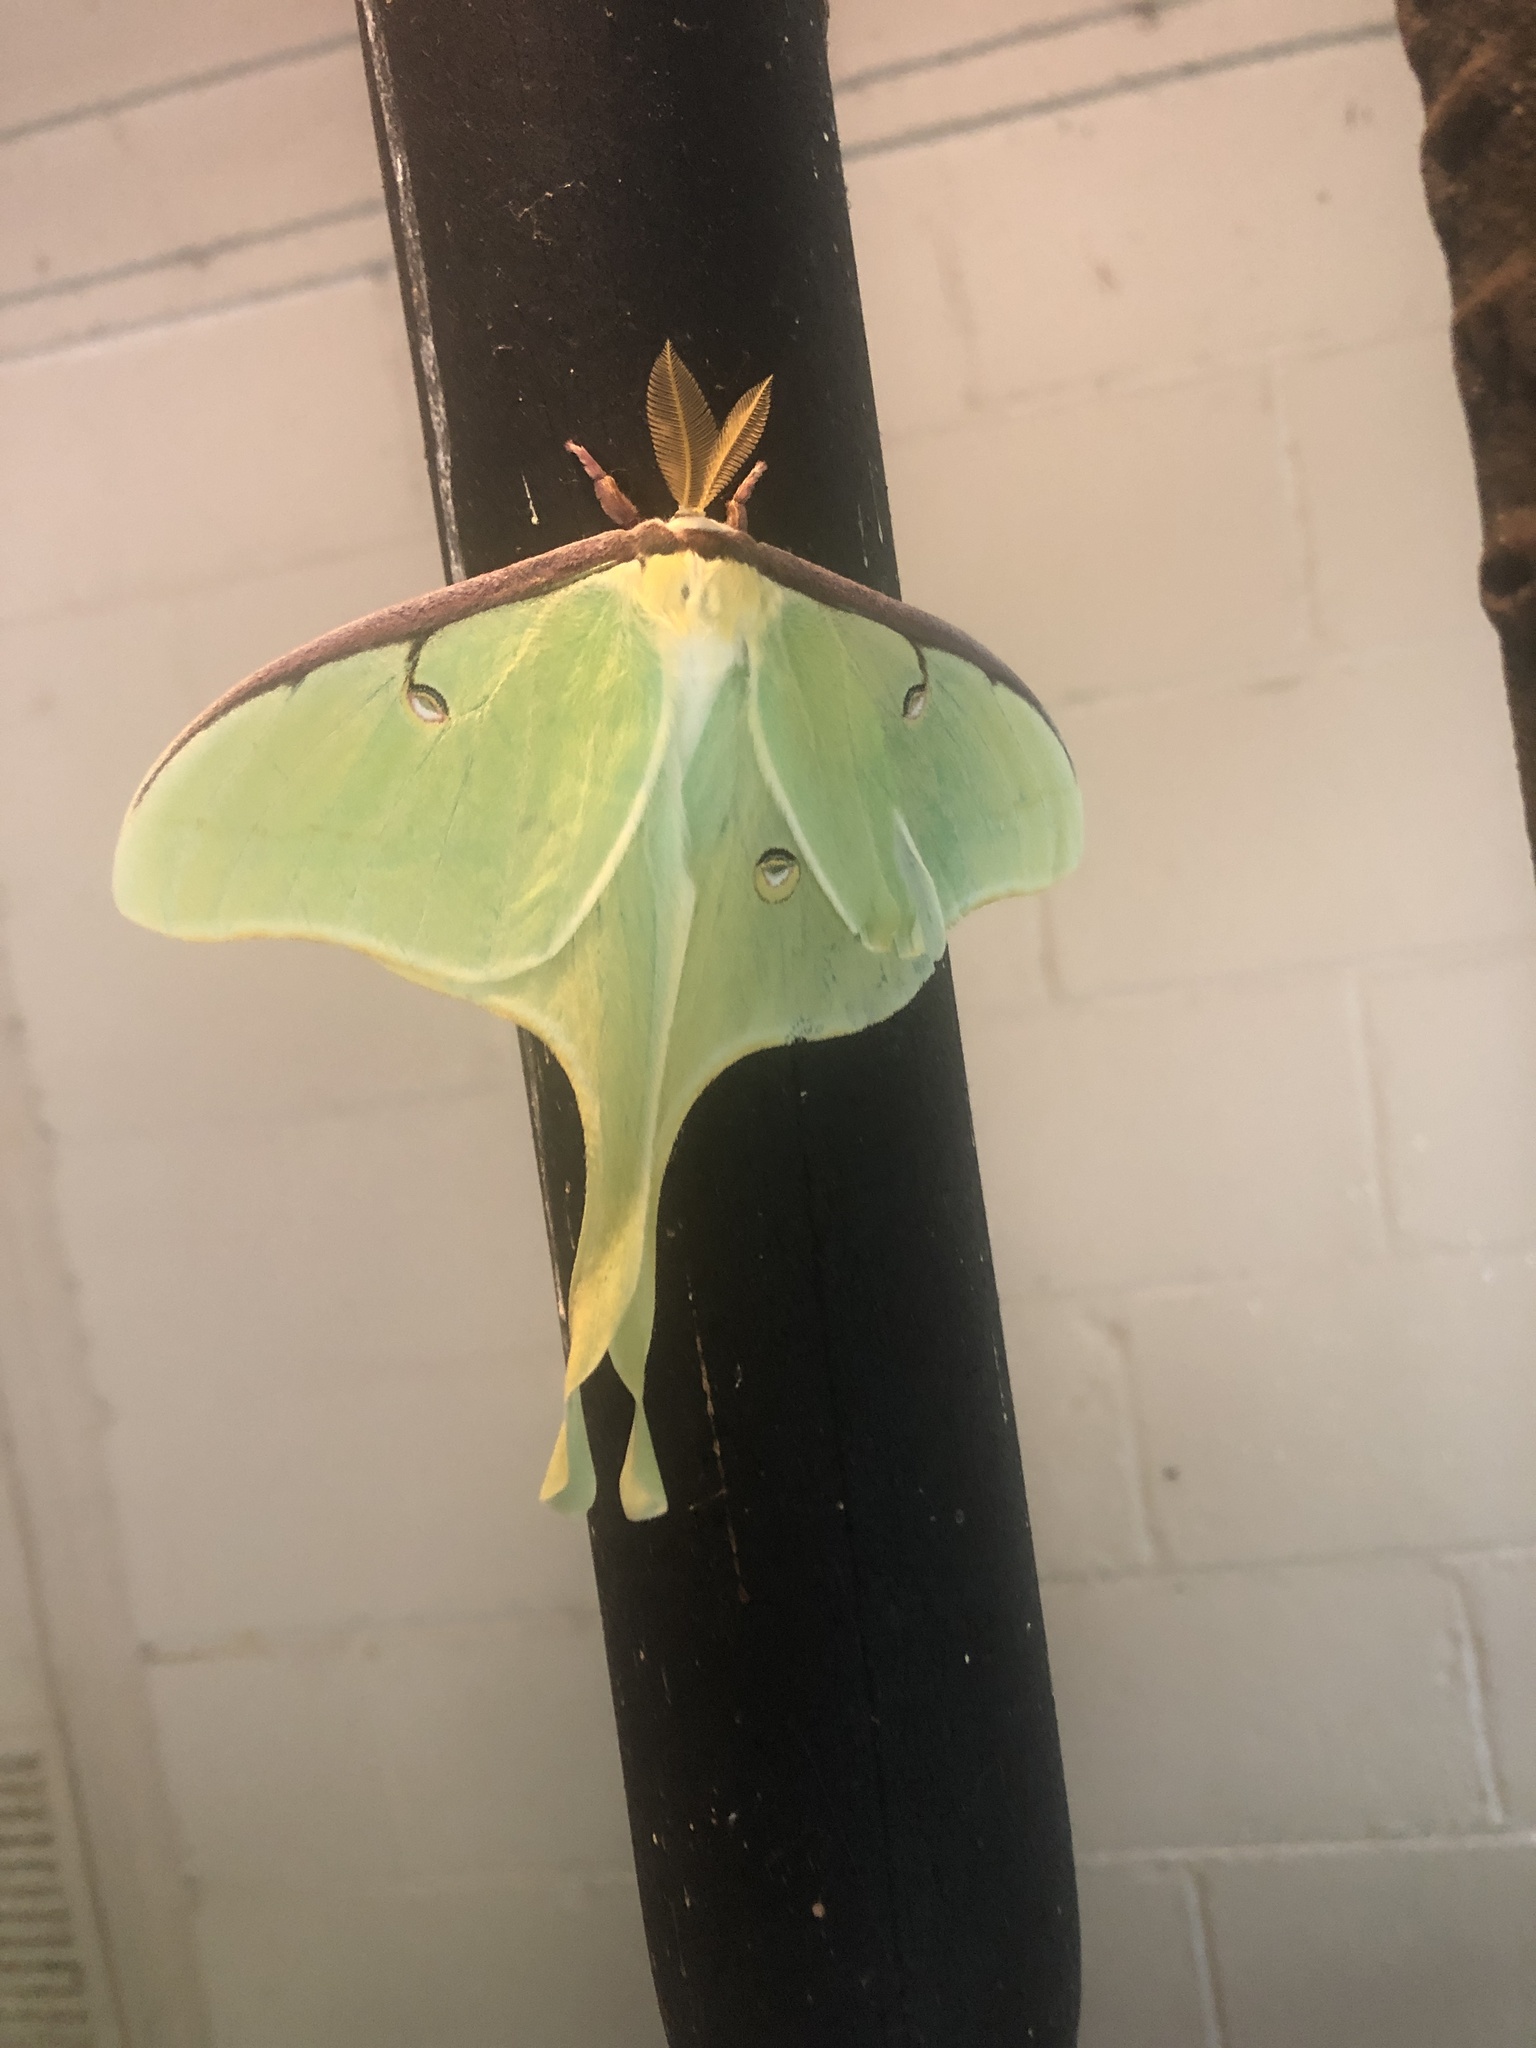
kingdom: Animalia
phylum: Arthropoda
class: Insecta
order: Lepidoptera
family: Saturniidae
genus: Actias
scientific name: Actias luna
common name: Luna moth
